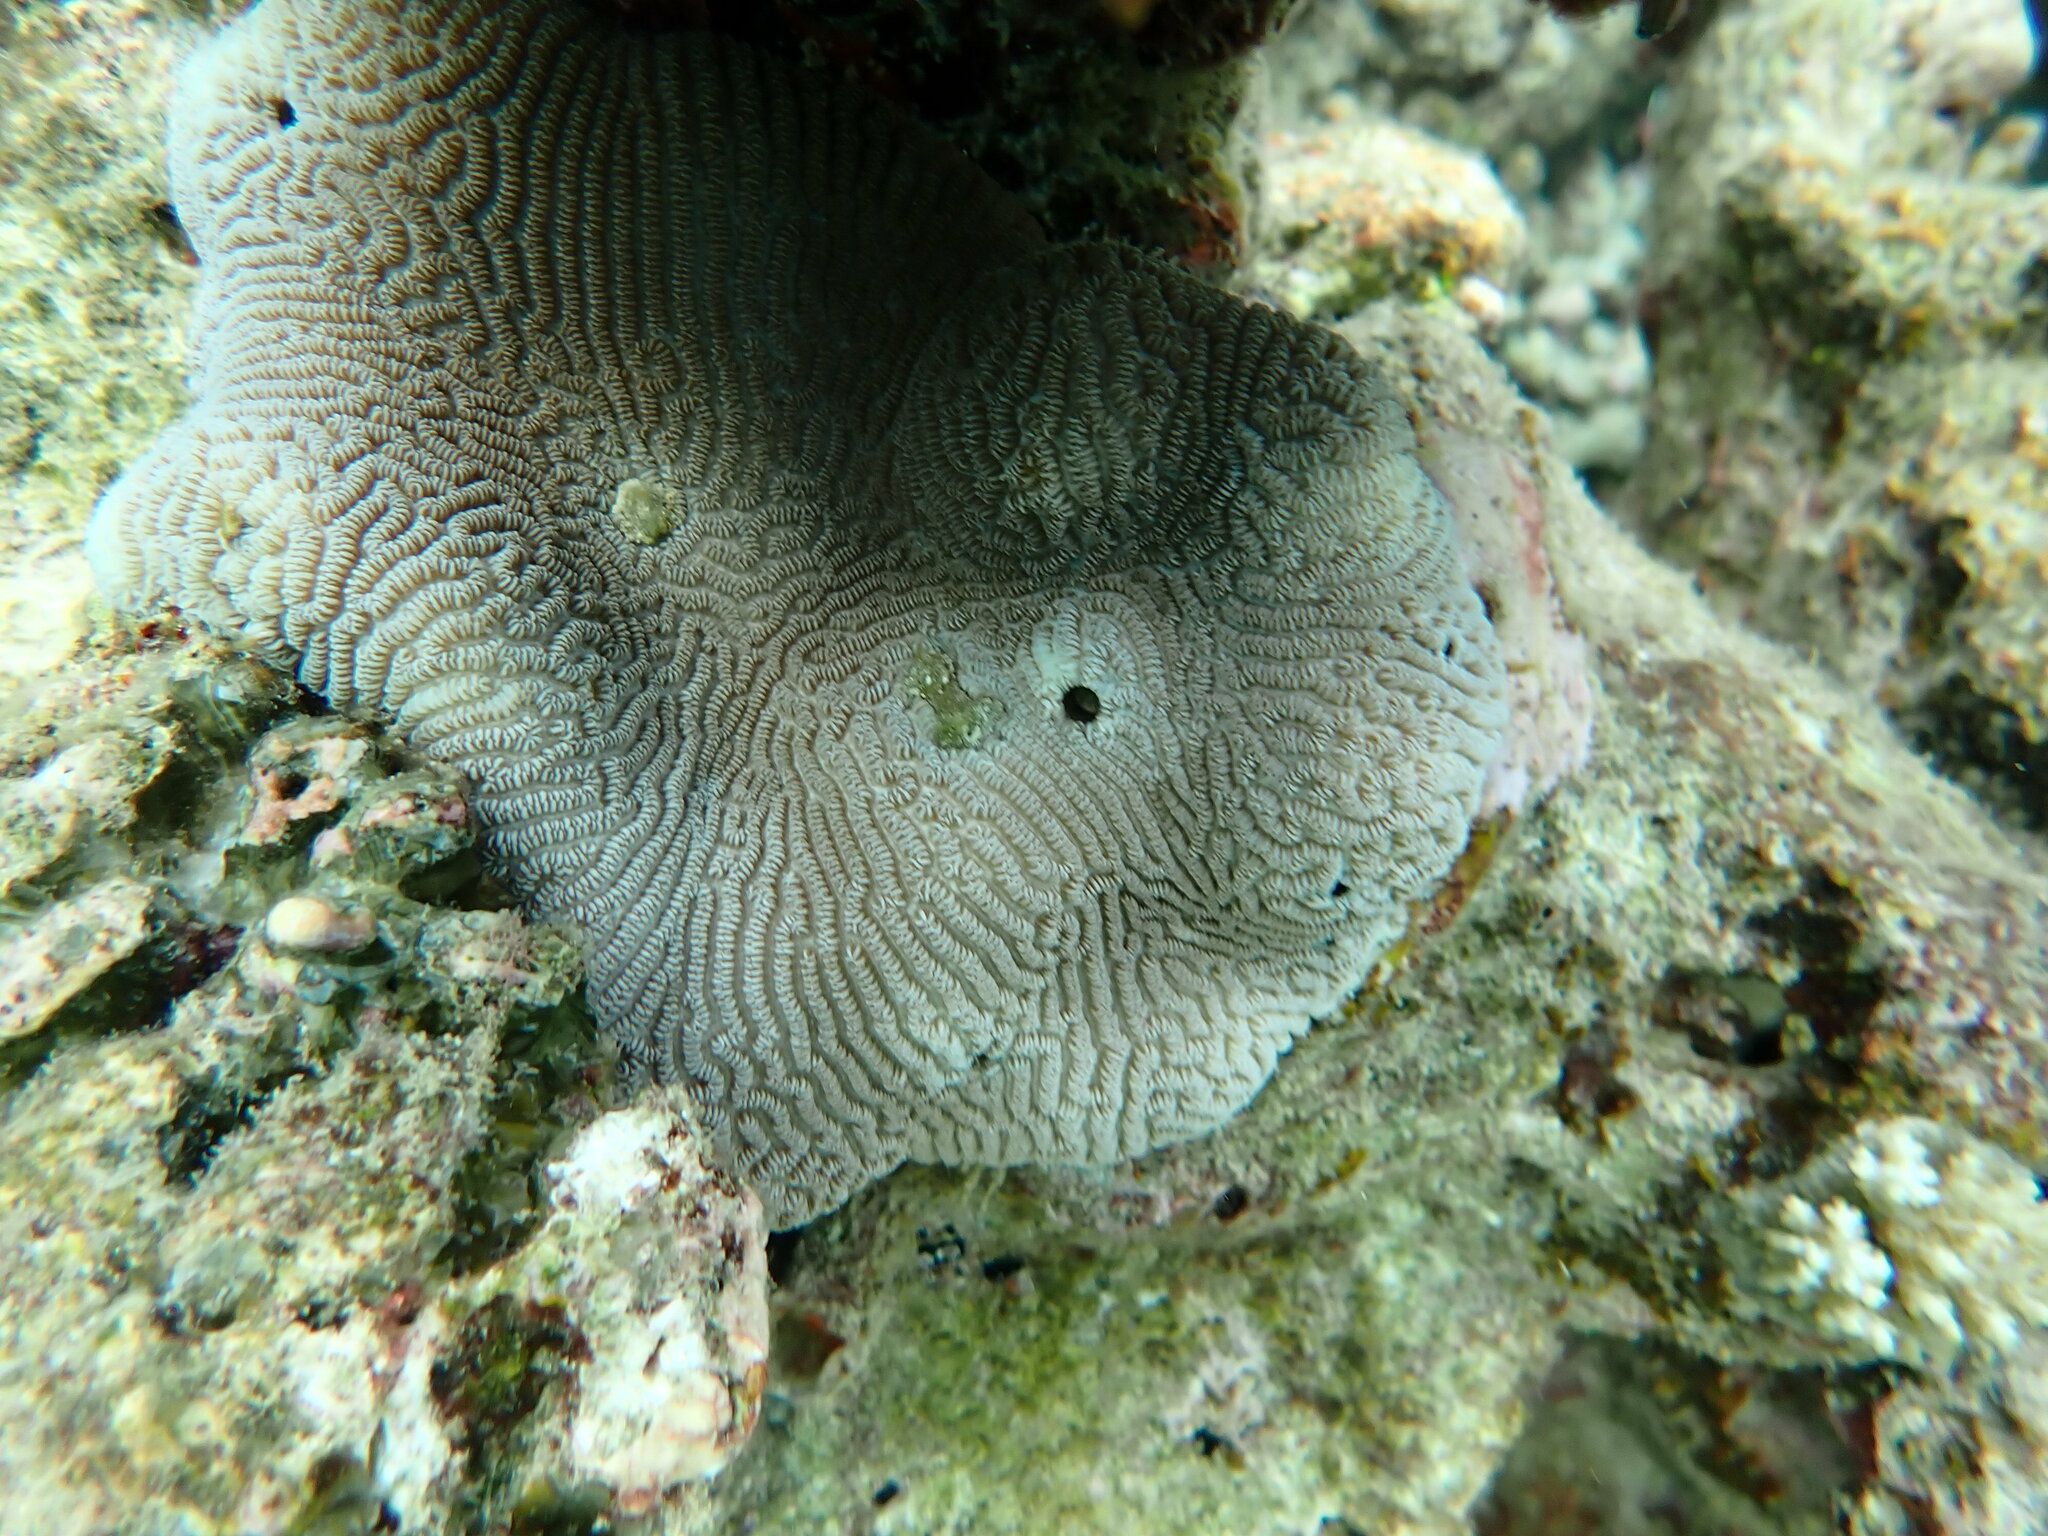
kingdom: Animalia
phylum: Cnidaria
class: Anthozoa
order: Scleractinia
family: Merulinidae
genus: Leptoria
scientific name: Leptoria phrygia
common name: Least valley coral
